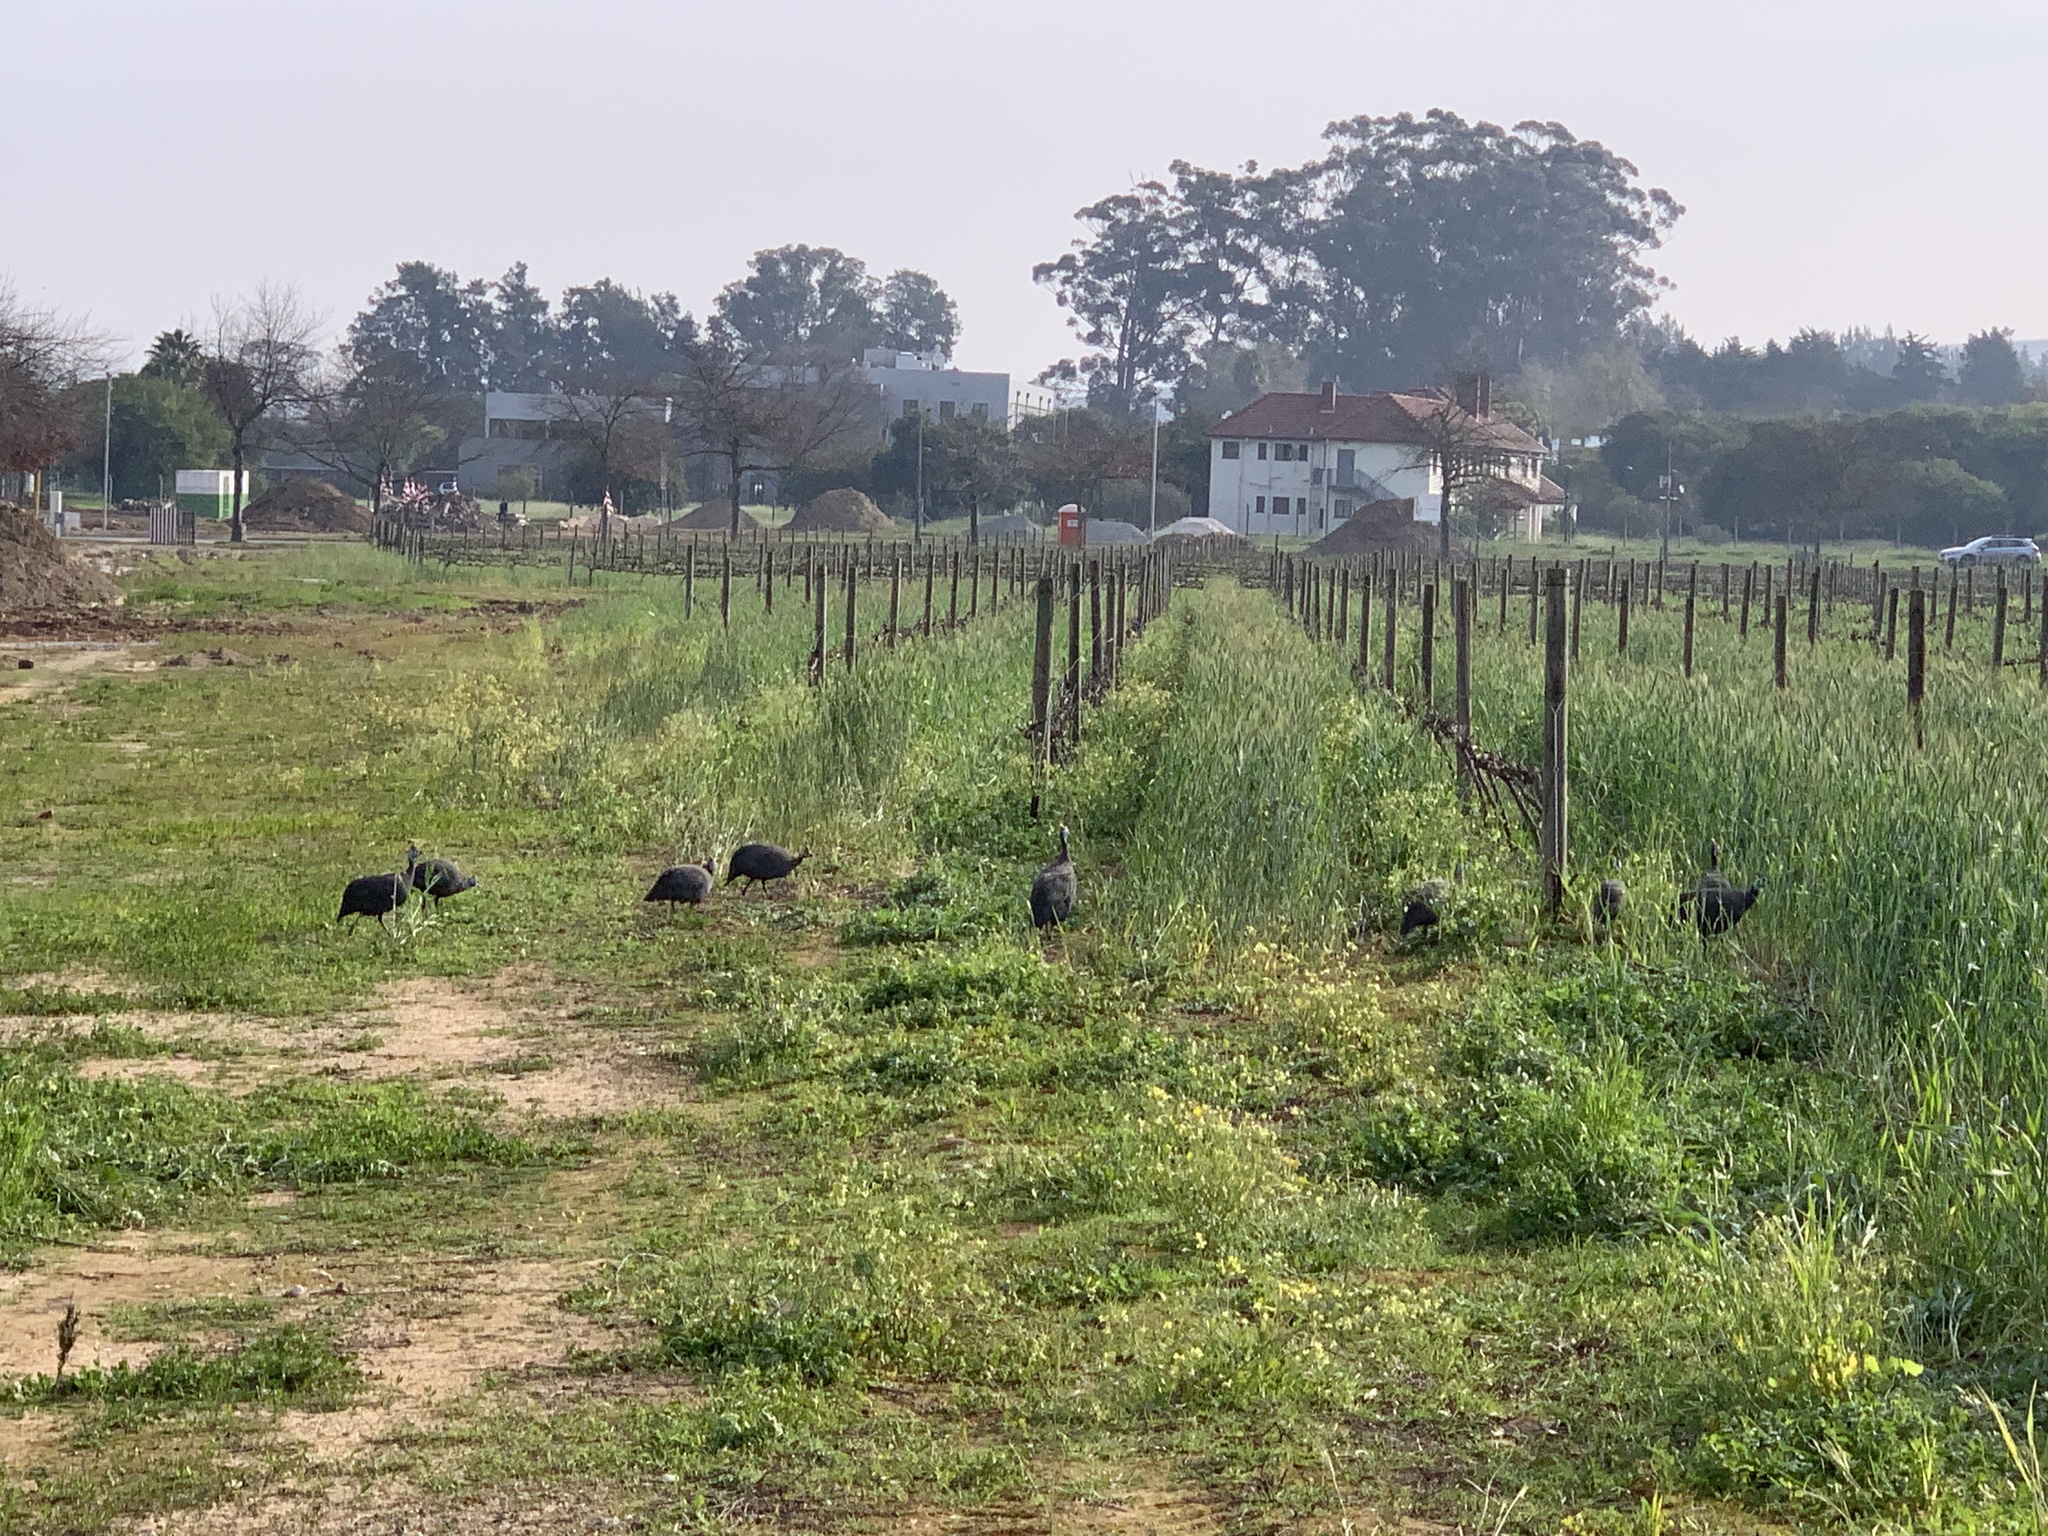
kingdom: Animalia
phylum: Chordata
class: Aves
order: Galliformes
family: Numididae
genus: Numida
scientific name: Numida meleagris
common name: Helmeted guineafowl
